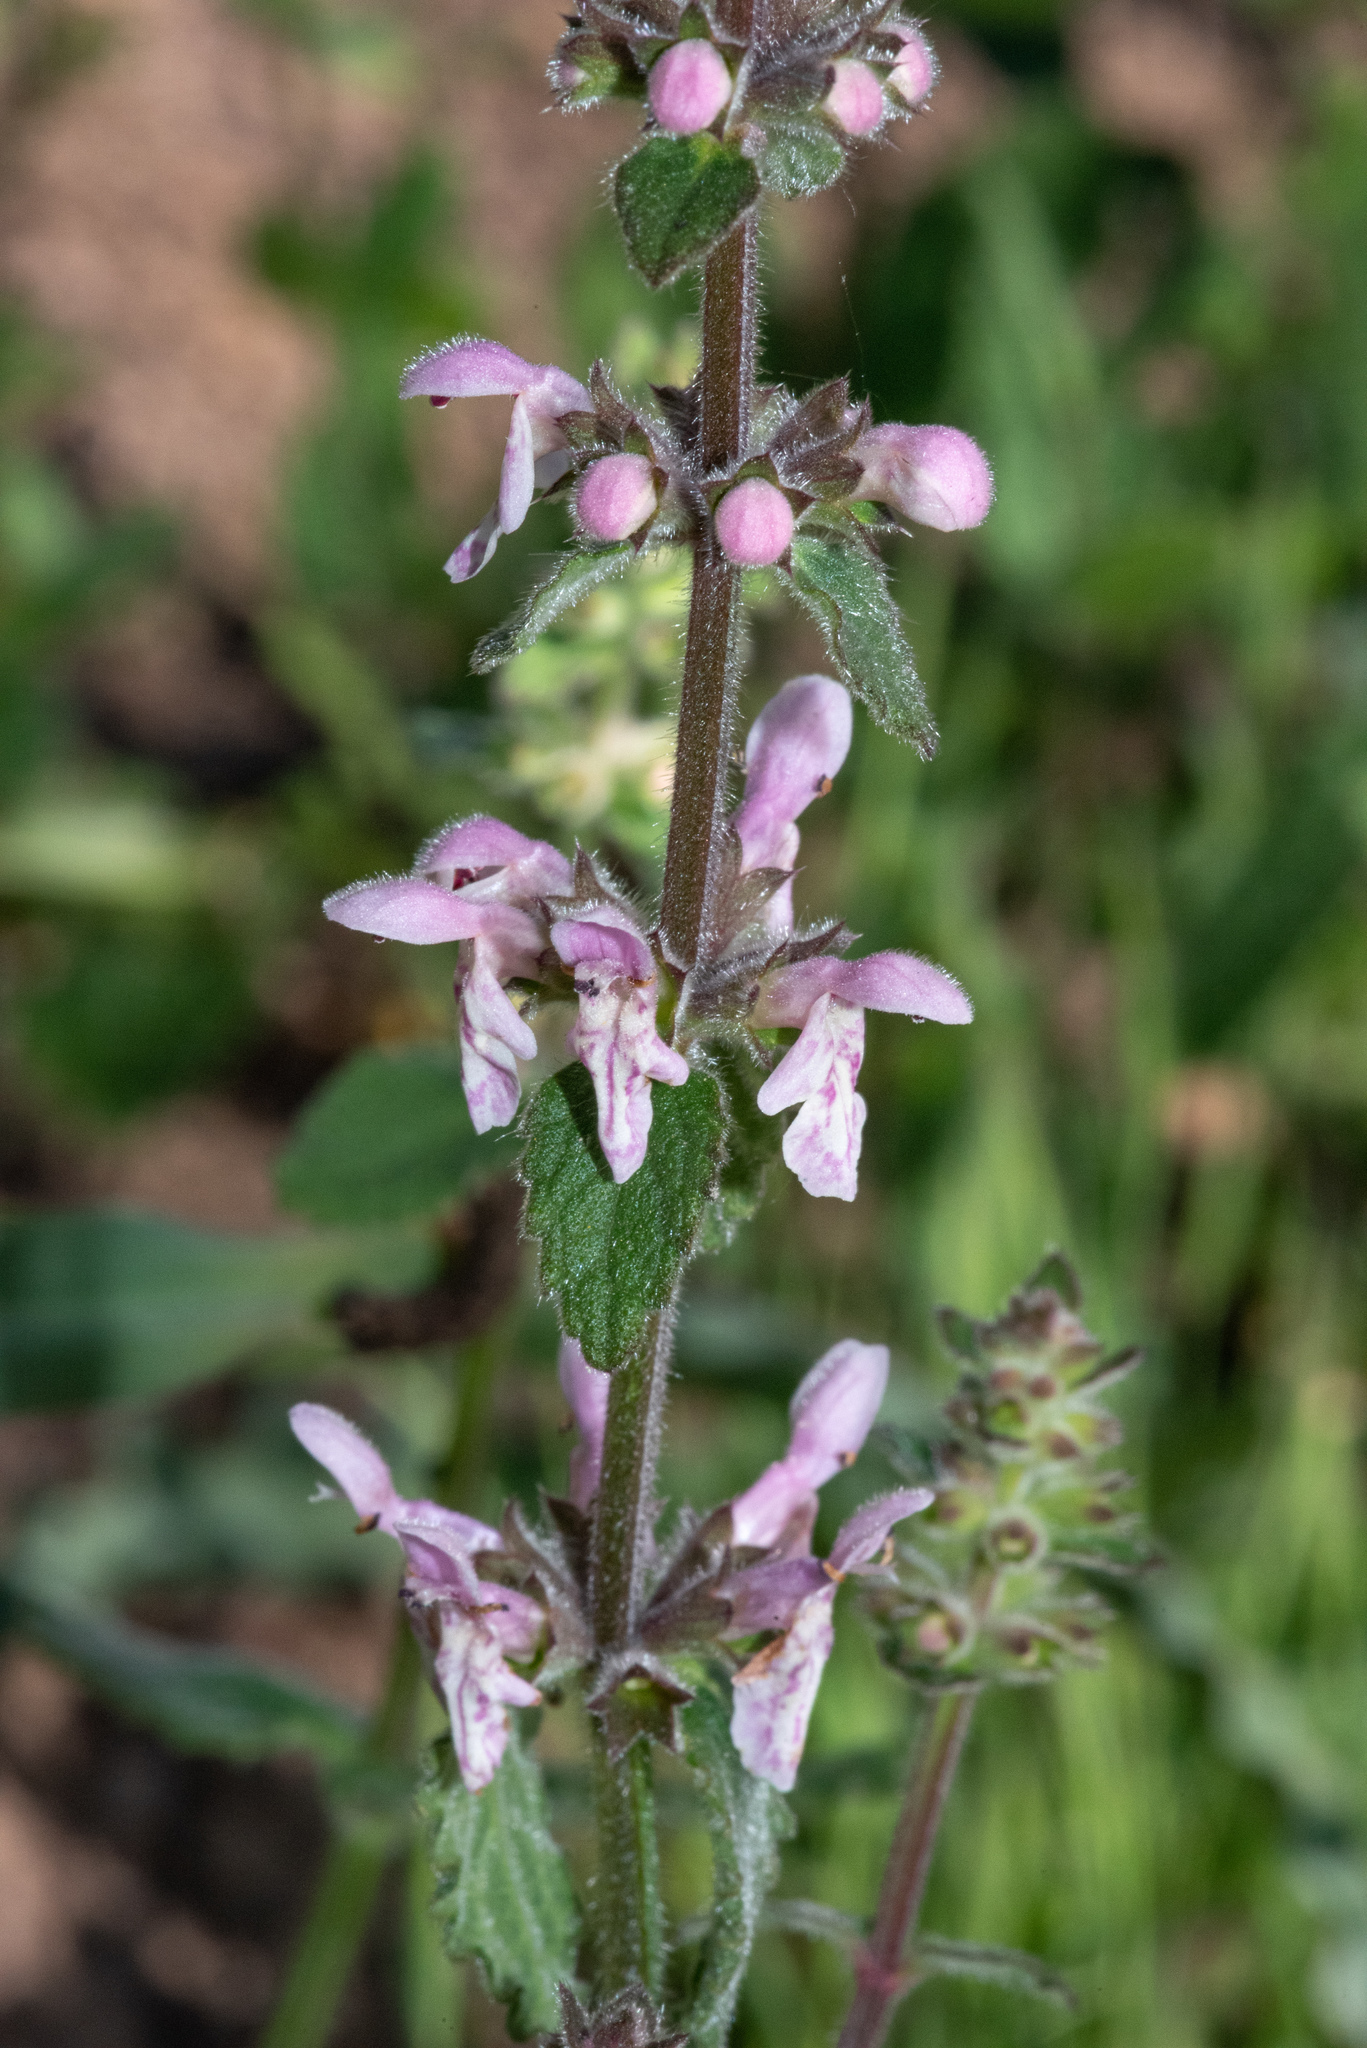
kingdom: Plantae
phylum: Tracheophyta
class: Magnoliopsida
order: Lamiales
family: Lamiaceae
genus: Stachys
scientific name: Stachys rigida
